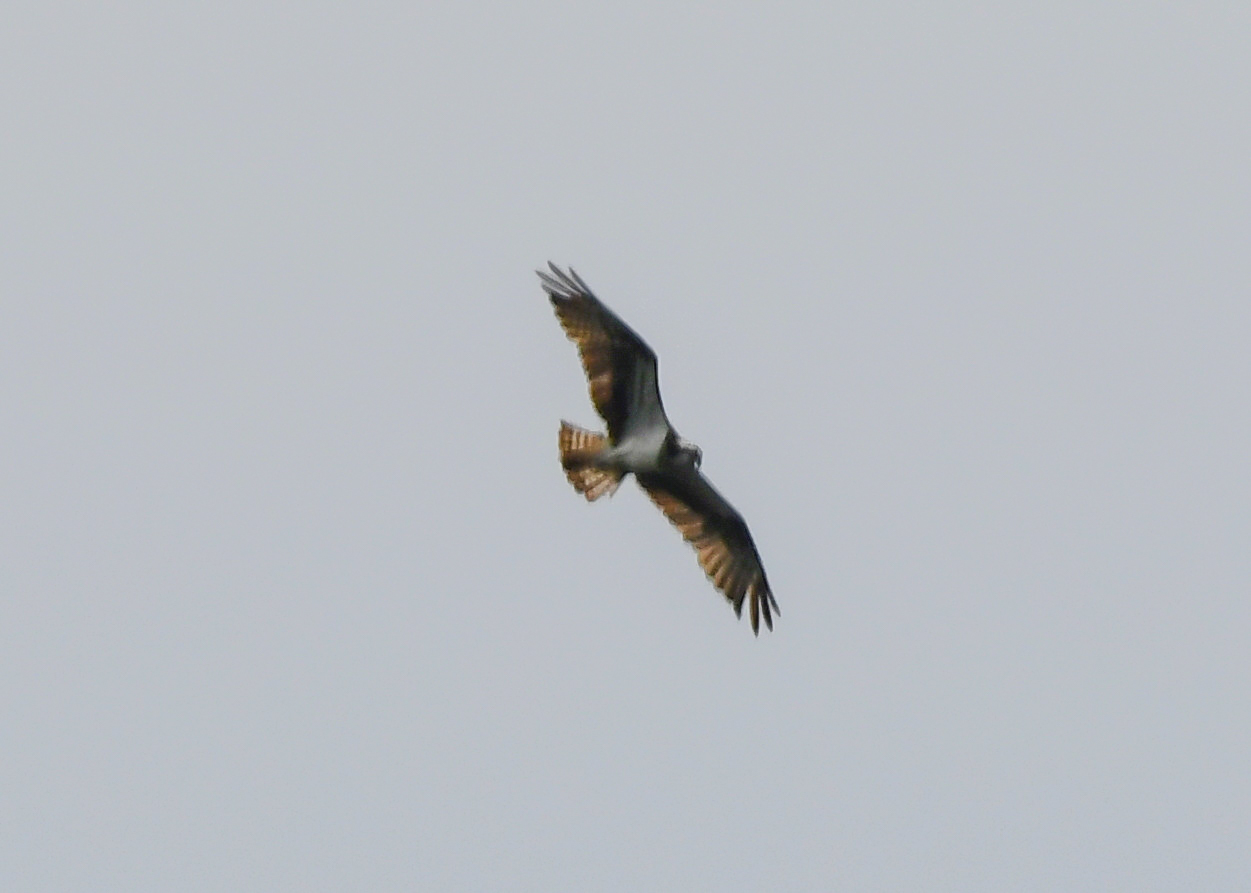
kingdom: Animalia
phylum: Chordata
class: Aves
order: Accipitriformes
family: Pandionidae
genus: Pandion
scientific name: Pandion haliaetus
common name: Osprey
